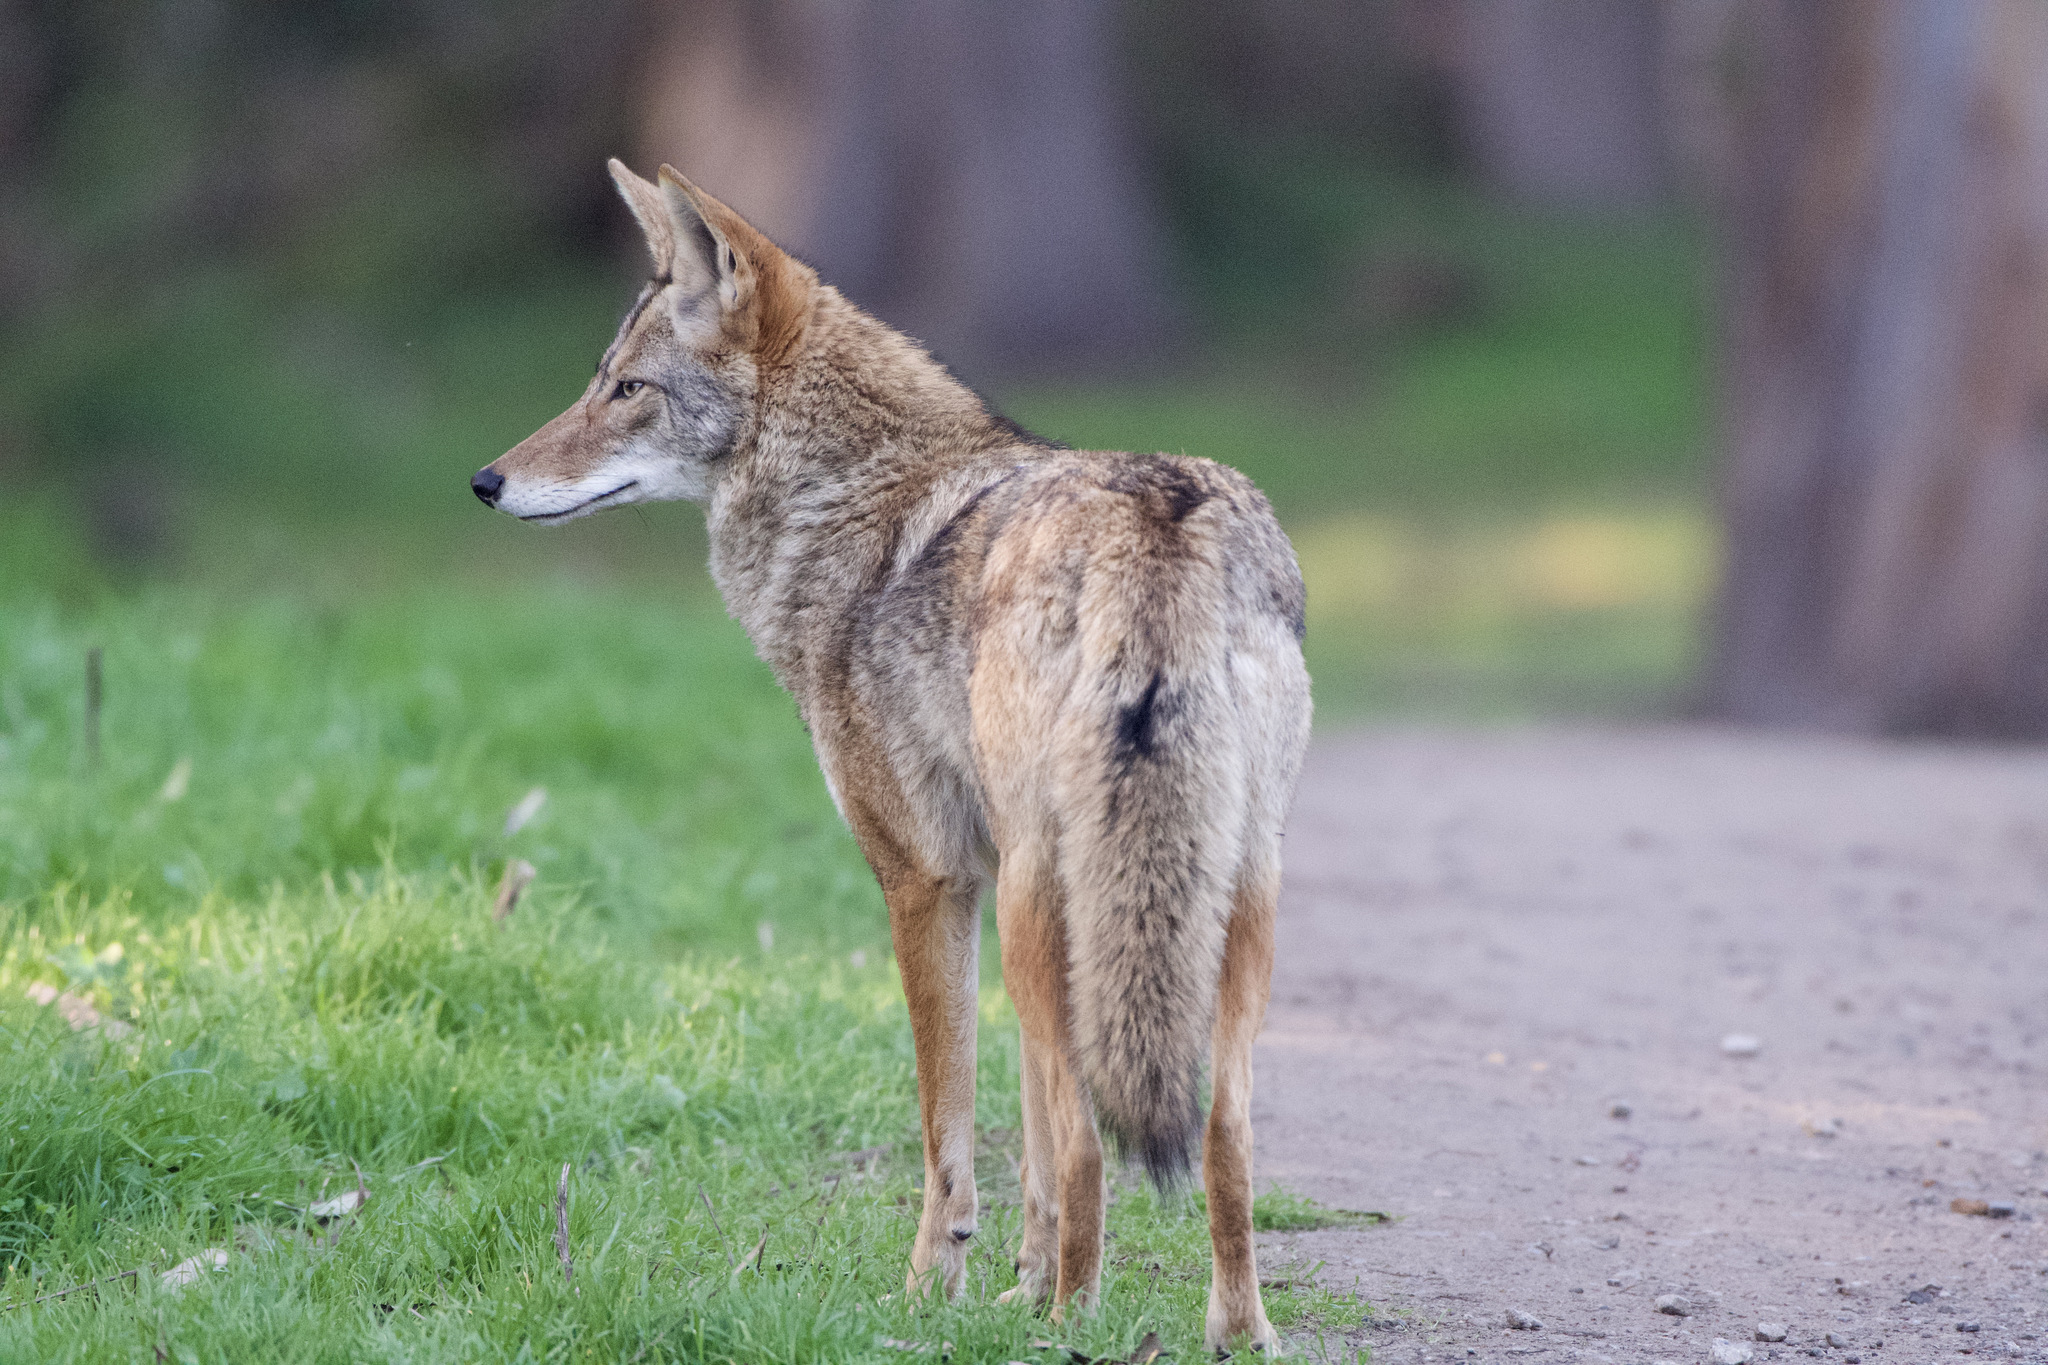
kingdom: Animalia
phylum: Chordata
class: Mammalia
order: Carnivora
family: Canidae
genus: Canis
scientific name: Canis latrans
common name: Coyote
